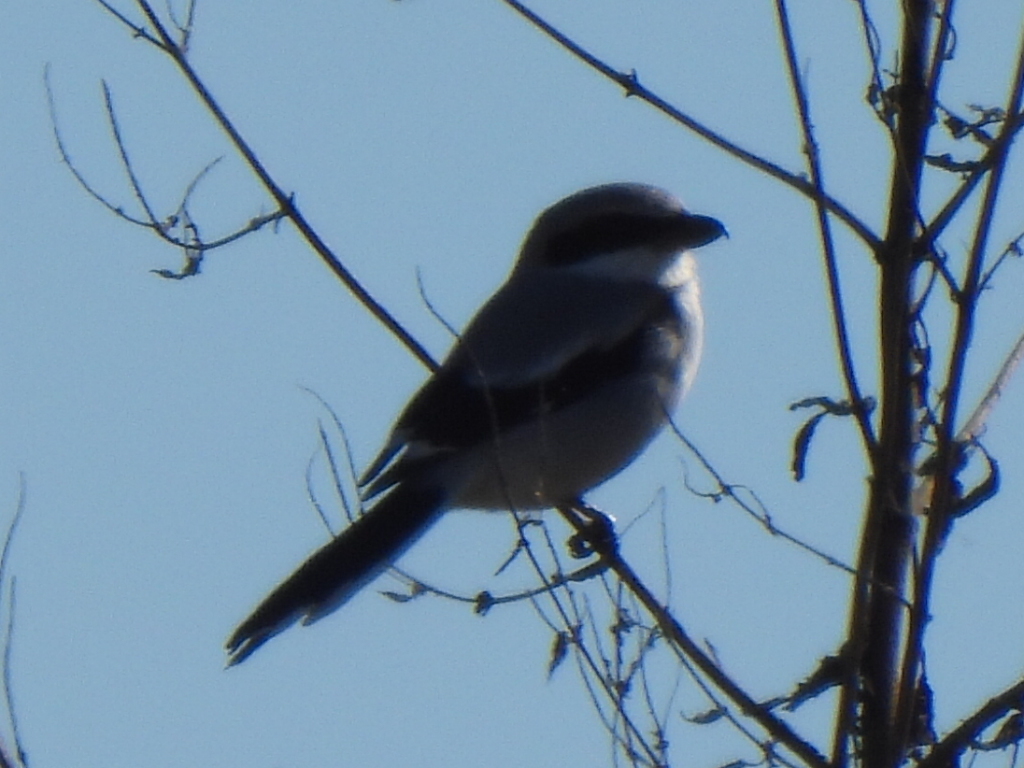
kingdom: Animalia
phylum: Chordata
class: Aves
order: Passeriformes
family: Laniidae
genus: Lanius
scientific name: Lanius ludovicianus
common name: Loggerhead shrike
